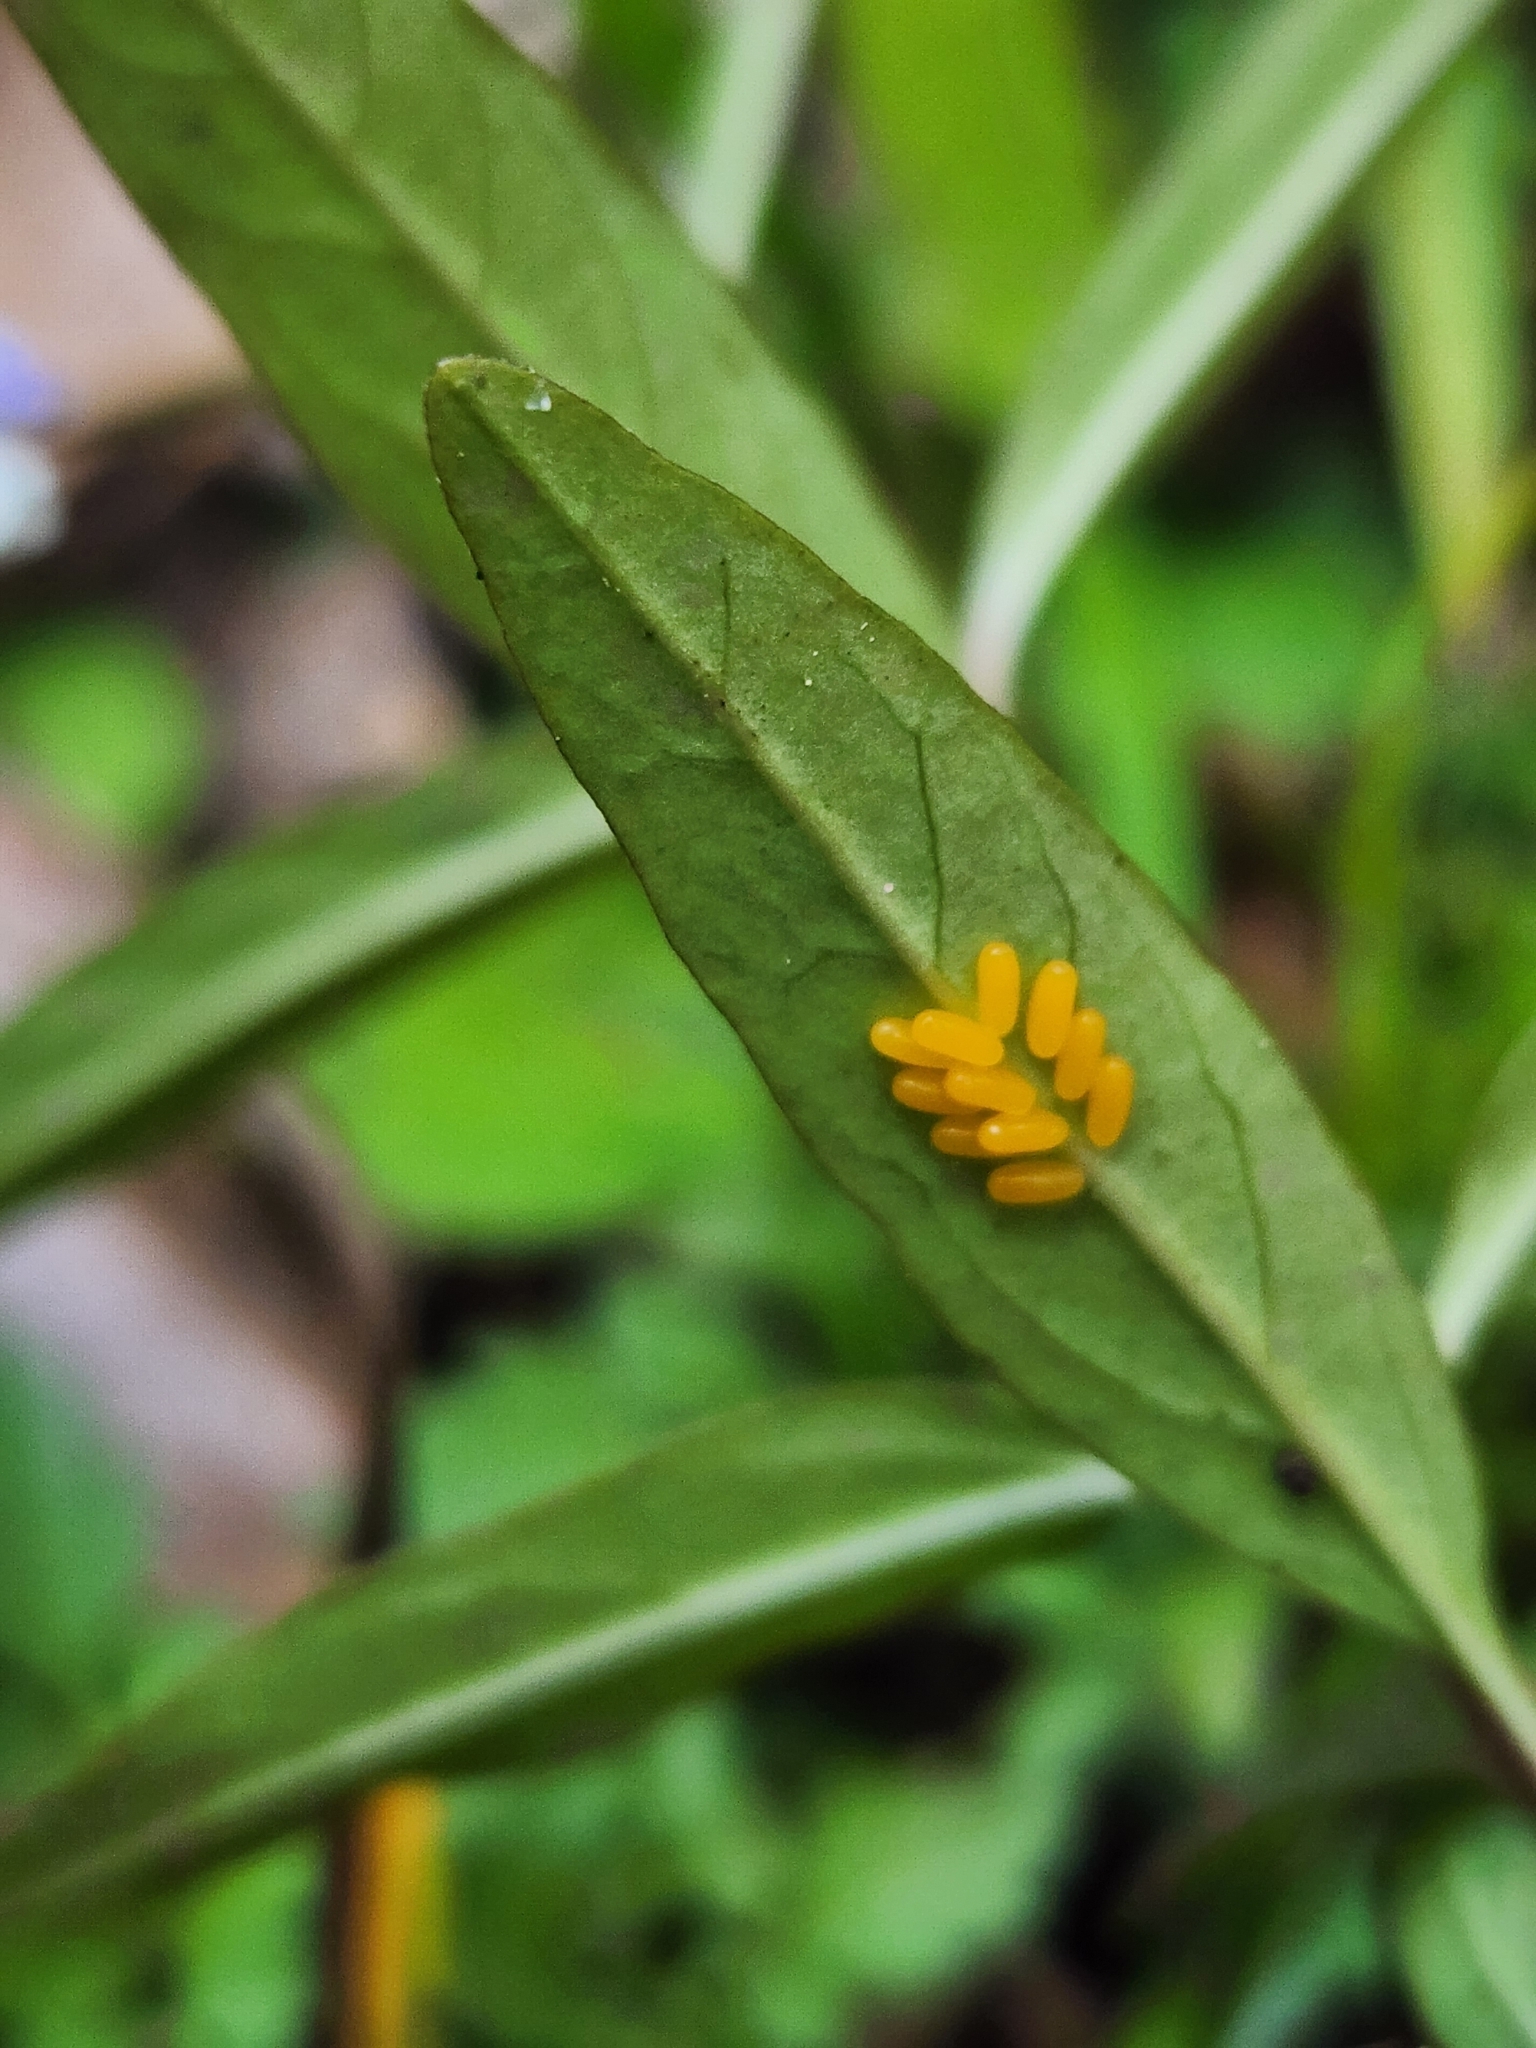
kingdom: Plantae
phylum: Tracheophyta
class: Magnoliopsida
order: Gentianales
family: Apocynaceae
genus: Asclepias
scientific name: Asclepias perennis
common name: Smooth-seed milkweed
